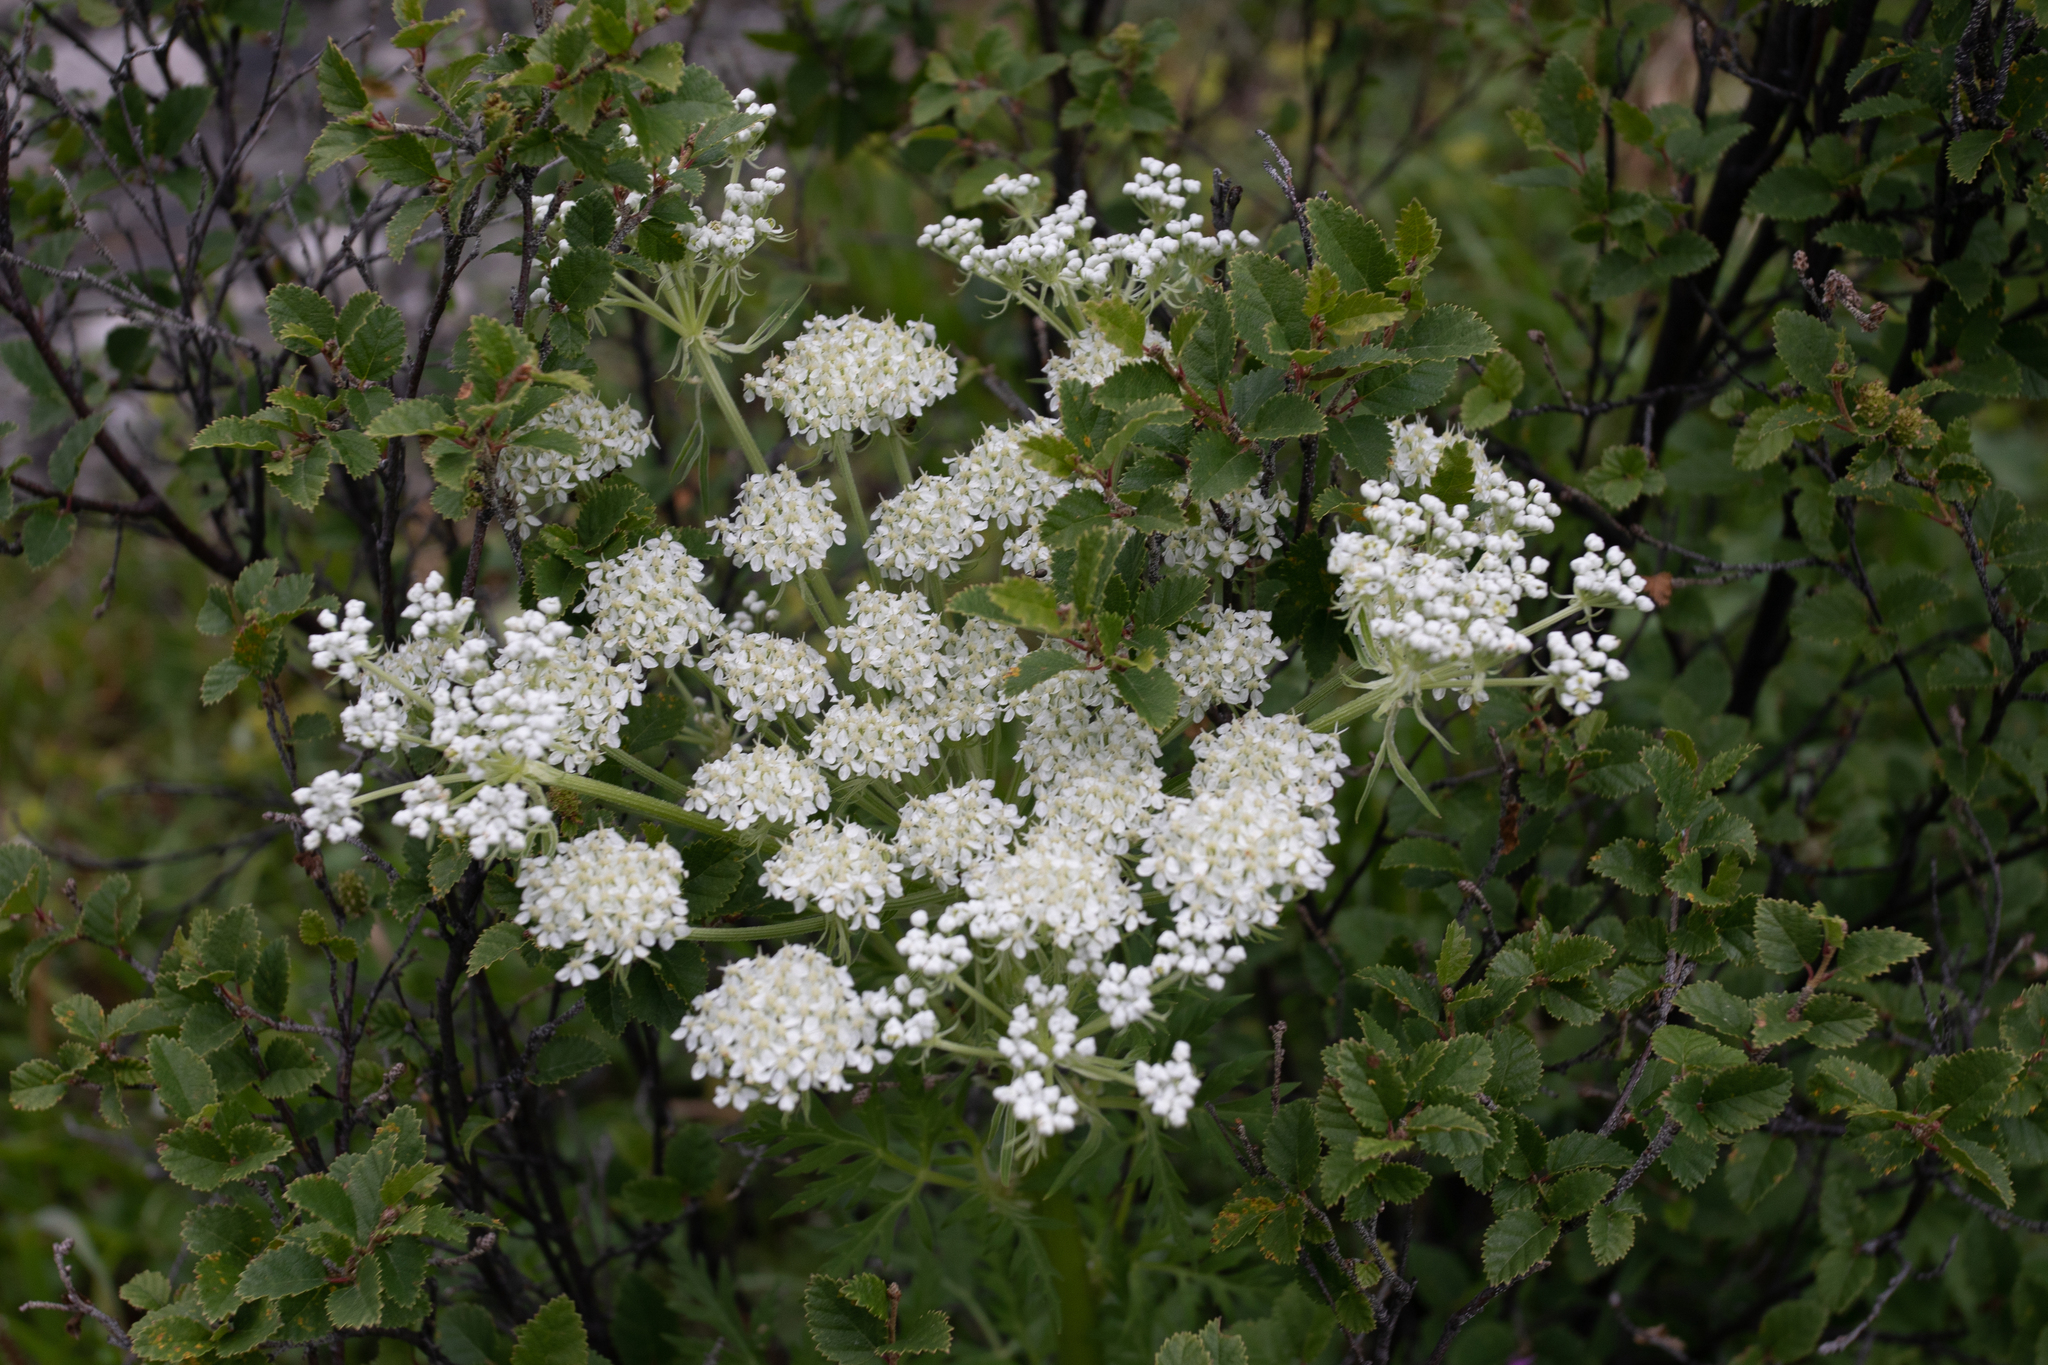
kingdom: Plantae
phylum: Tracheophyta
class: Magnoliopsida
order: Apiales
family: Apiaceae
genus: Pleurospermum
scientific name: Pleurospermum uralense
